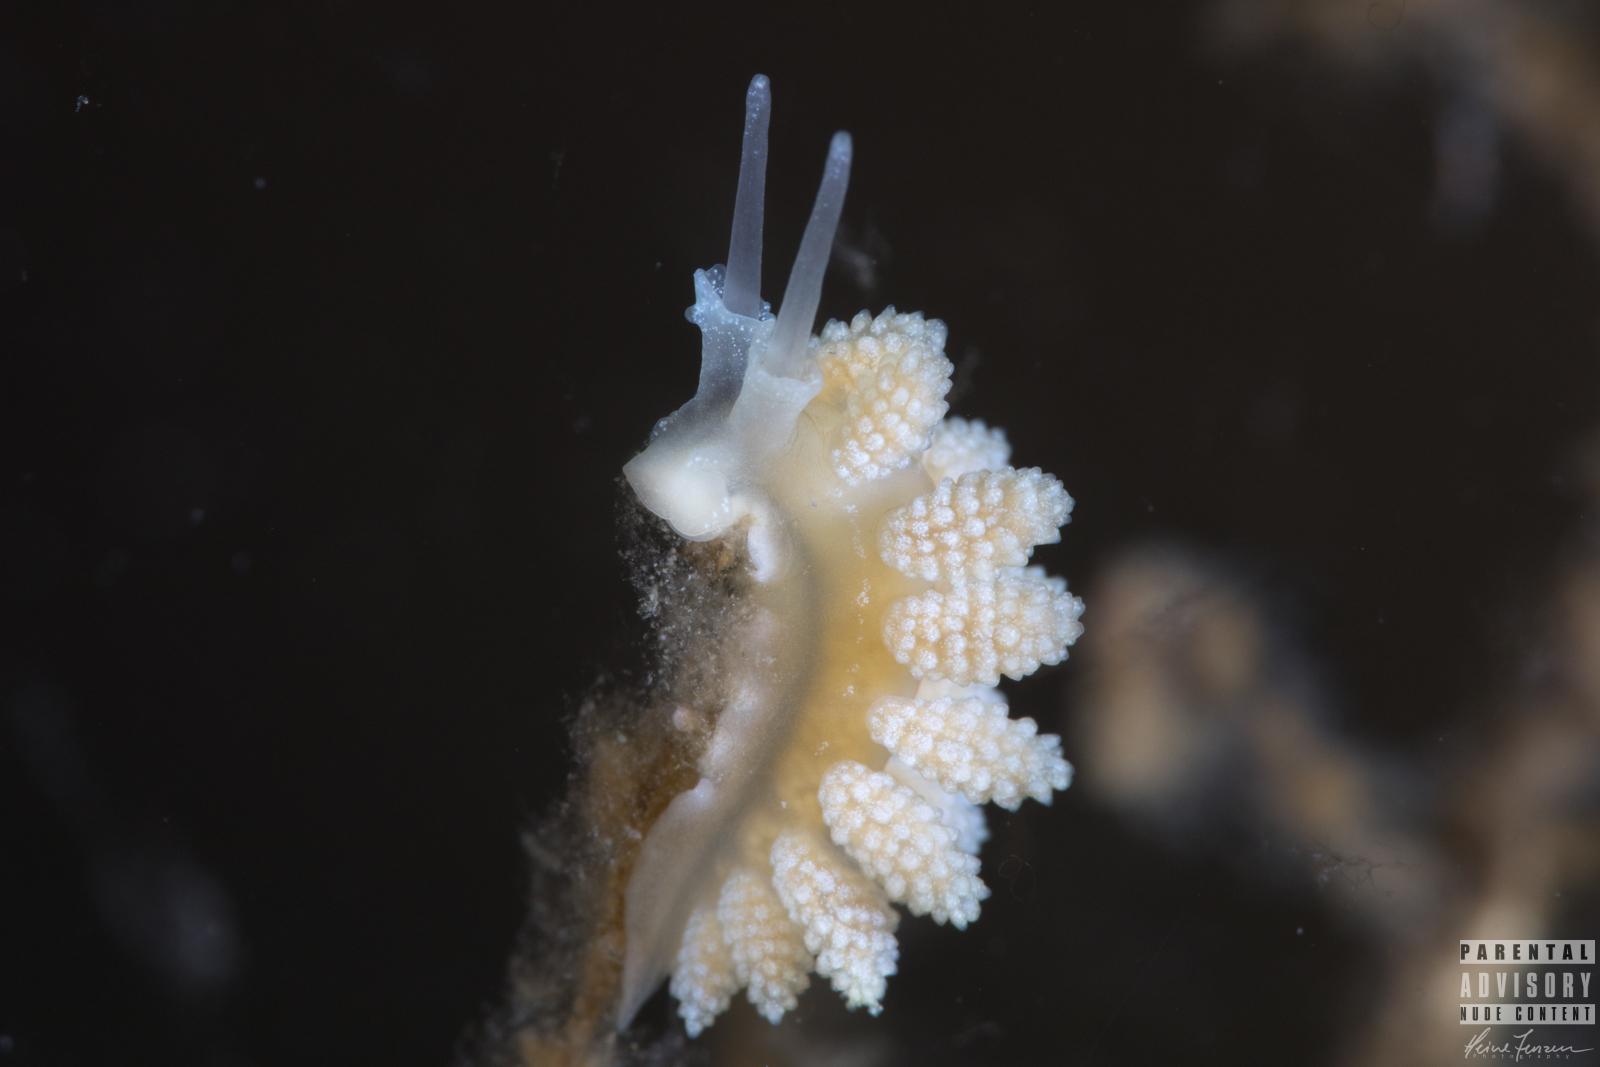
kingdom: Animalia
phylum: Mollusca
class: Gastropoda
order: Nudibranchia
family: Dotidae
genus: Doto
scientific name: Doto fragilis
